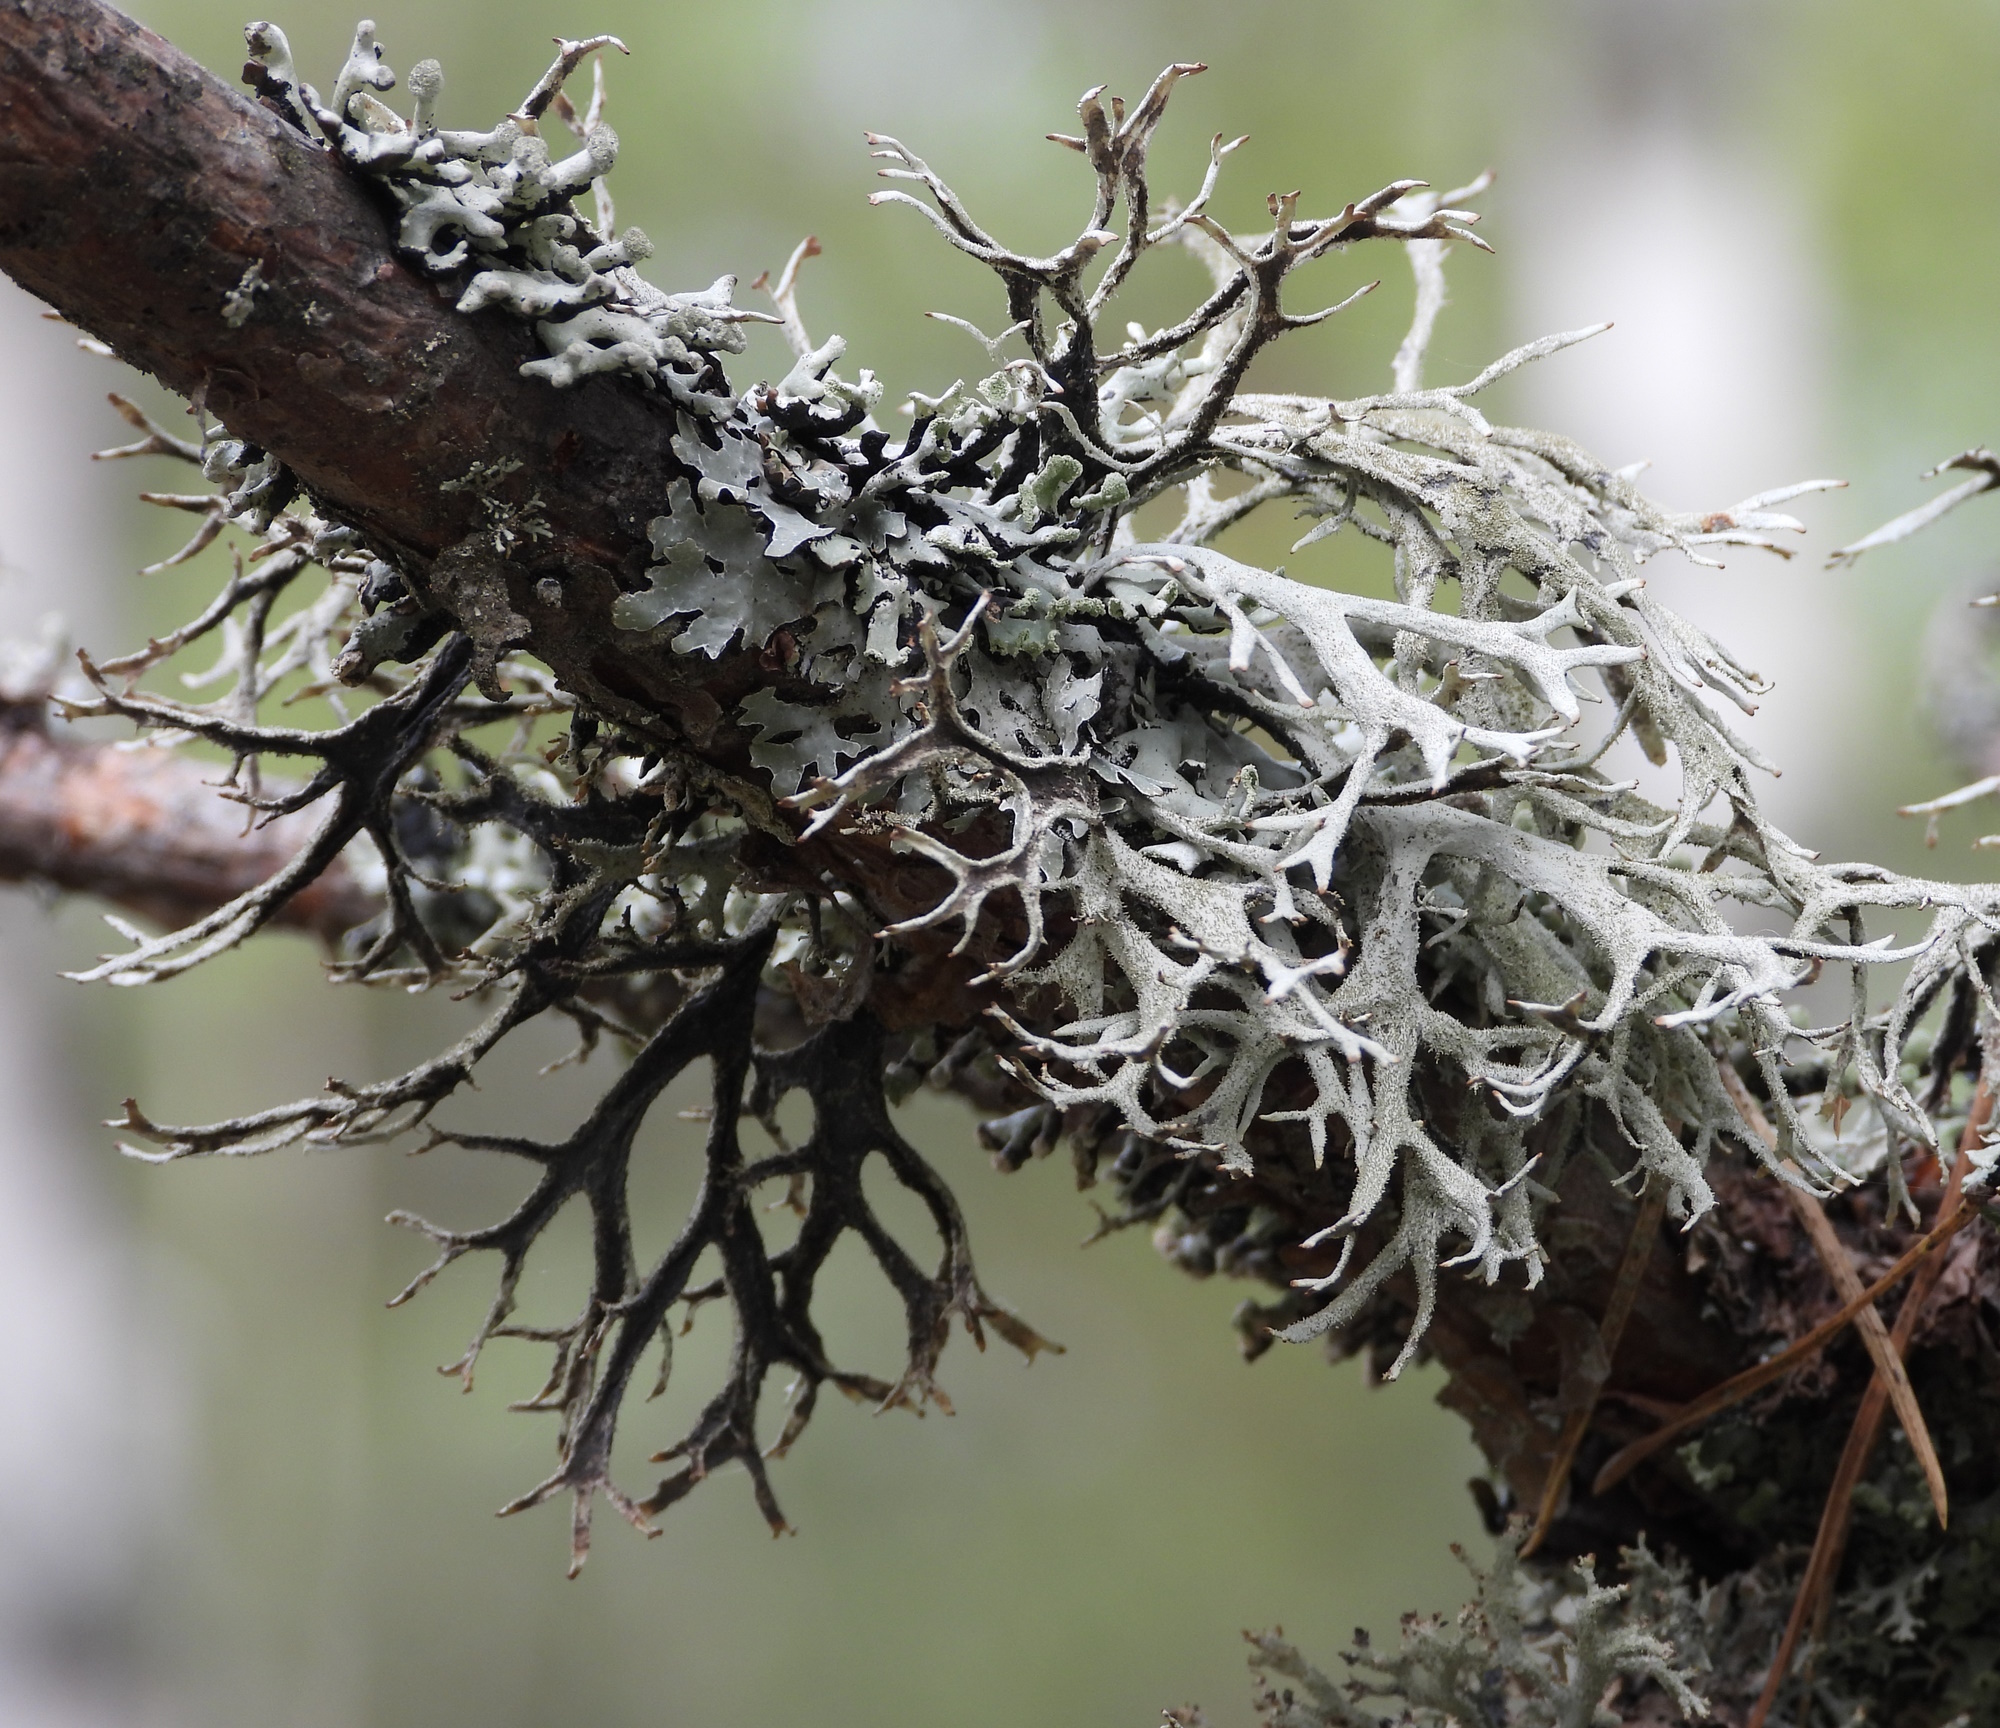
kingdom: Fungi
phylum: Ascomycota
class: Lecanoromycetes
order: Lecanorales
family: Parmeliaceae
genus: Pseudevernia
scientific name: Pseudevernia furfuracea
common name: Tree moss
